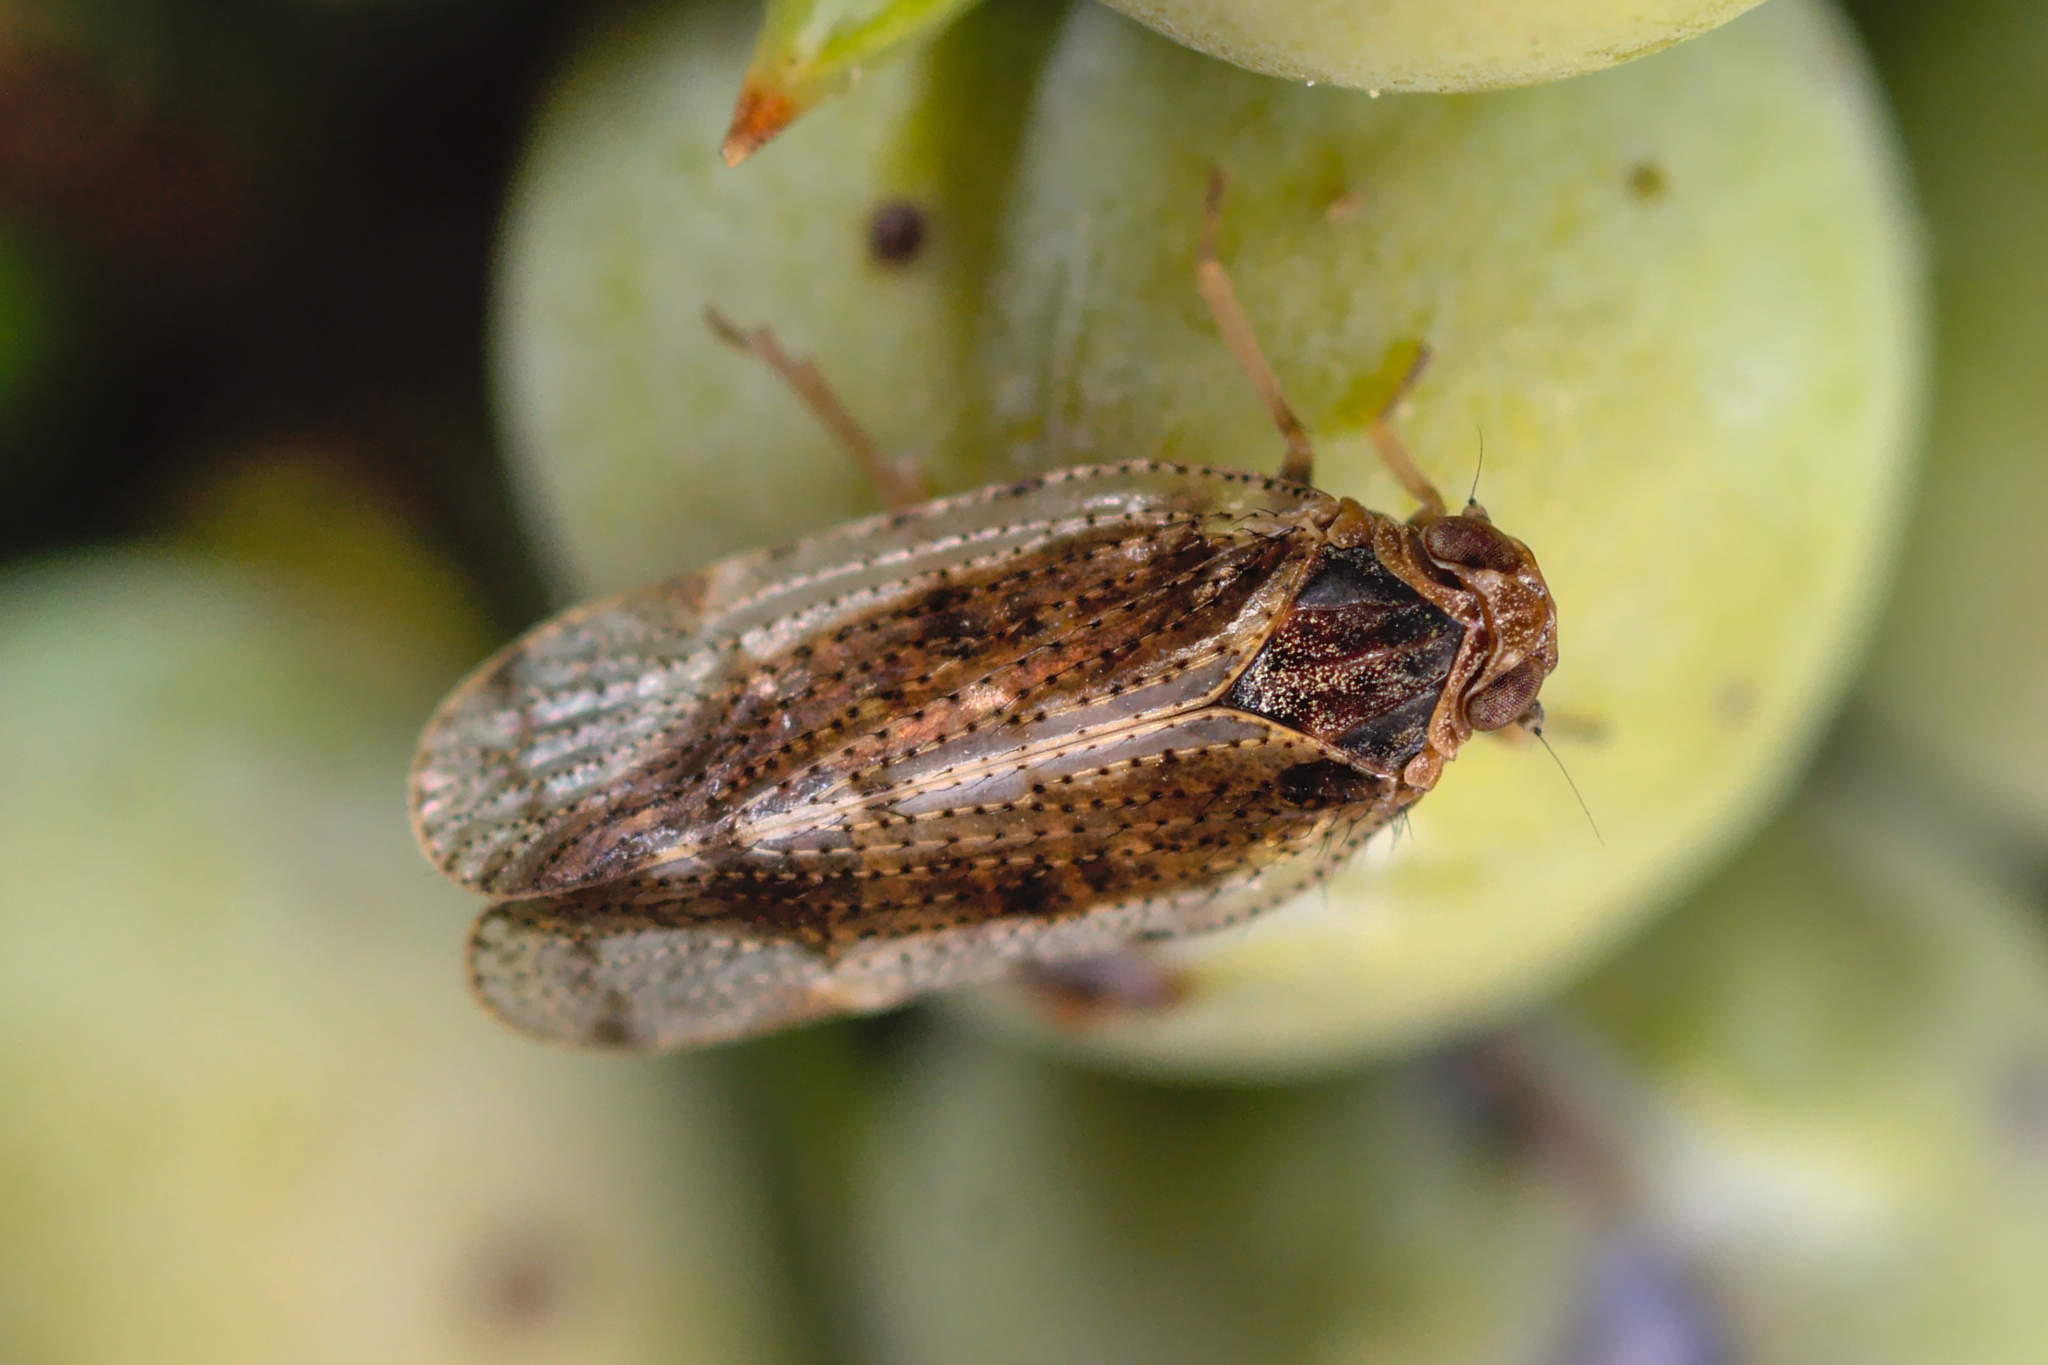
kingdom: Animalia
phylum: Arthropoda
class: Insecta
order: Hemiptera
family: Cixiidae
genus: Tachycixius
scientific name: Tachycixius pilosus
